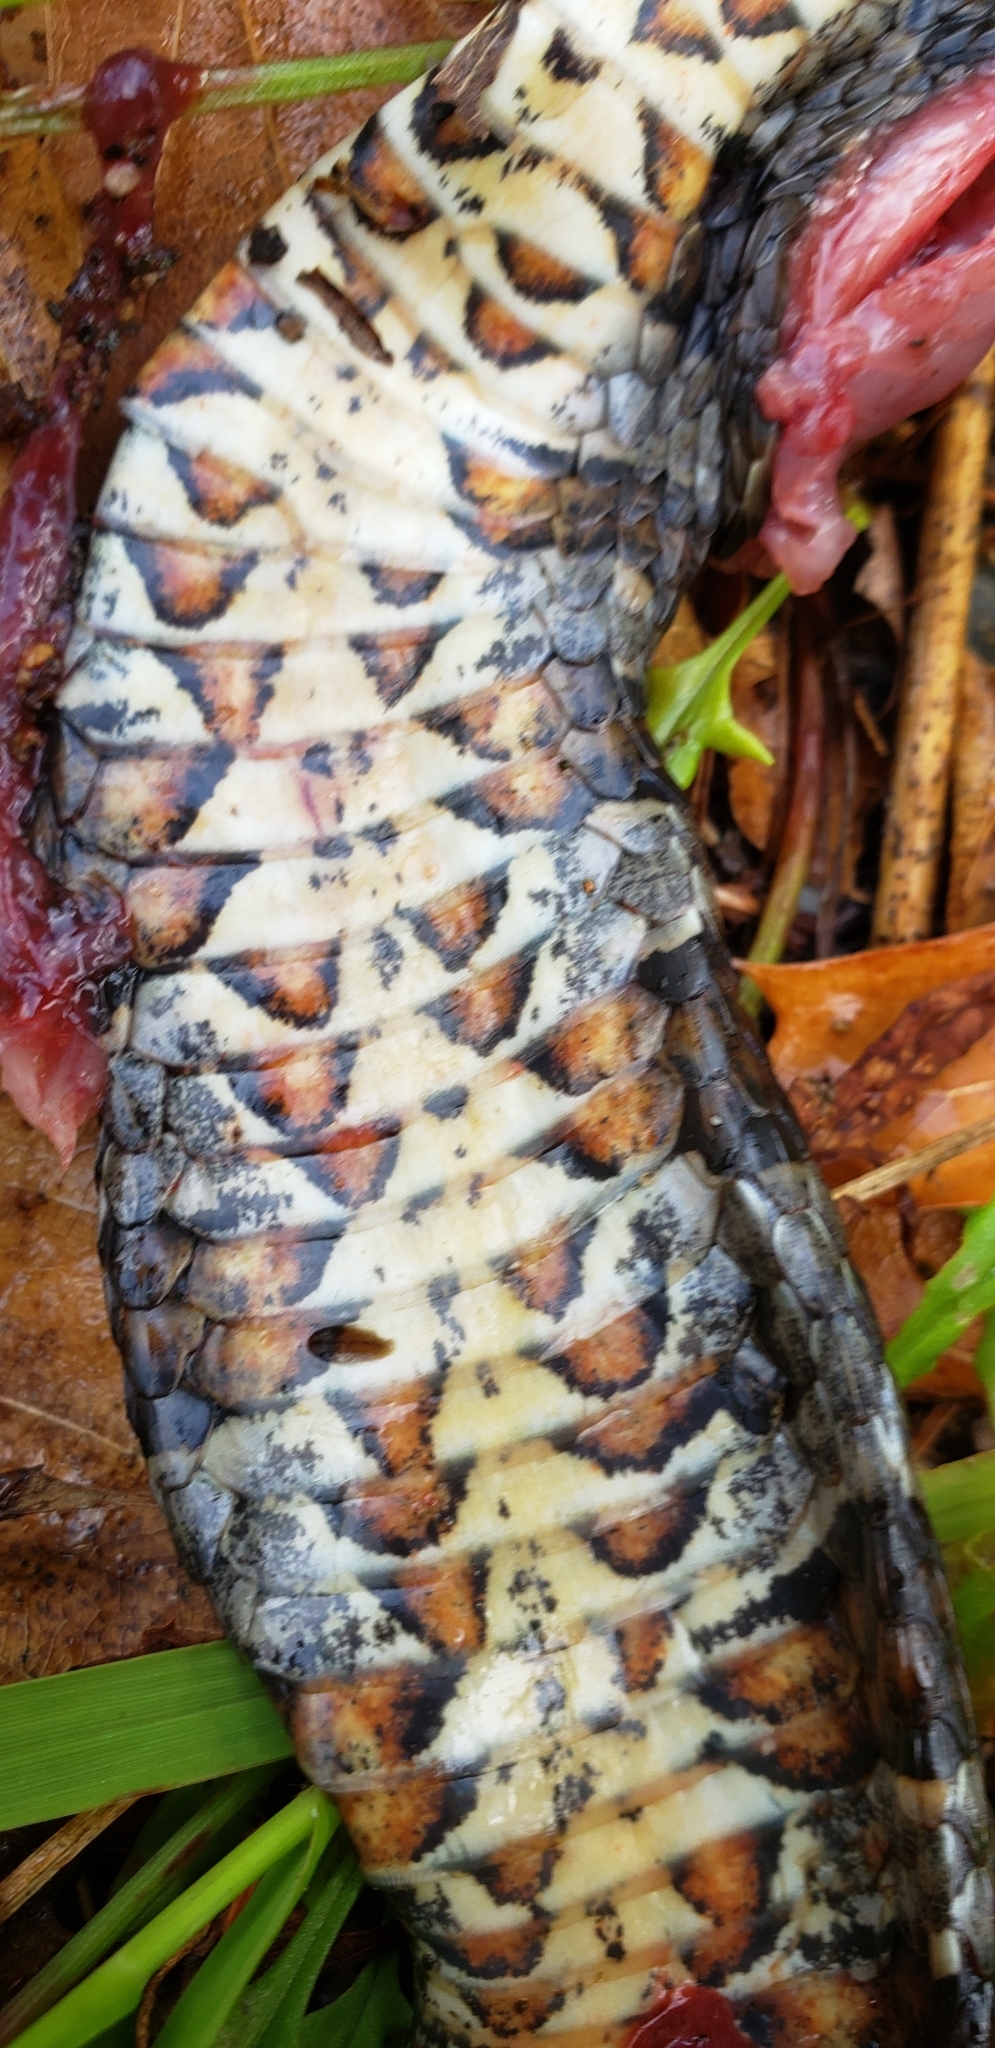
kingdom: Animalia
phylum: Chordata
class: Squamata
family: Colubridae
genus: Nerodia
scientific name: Nerodia sipedon
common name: Northern water snake
